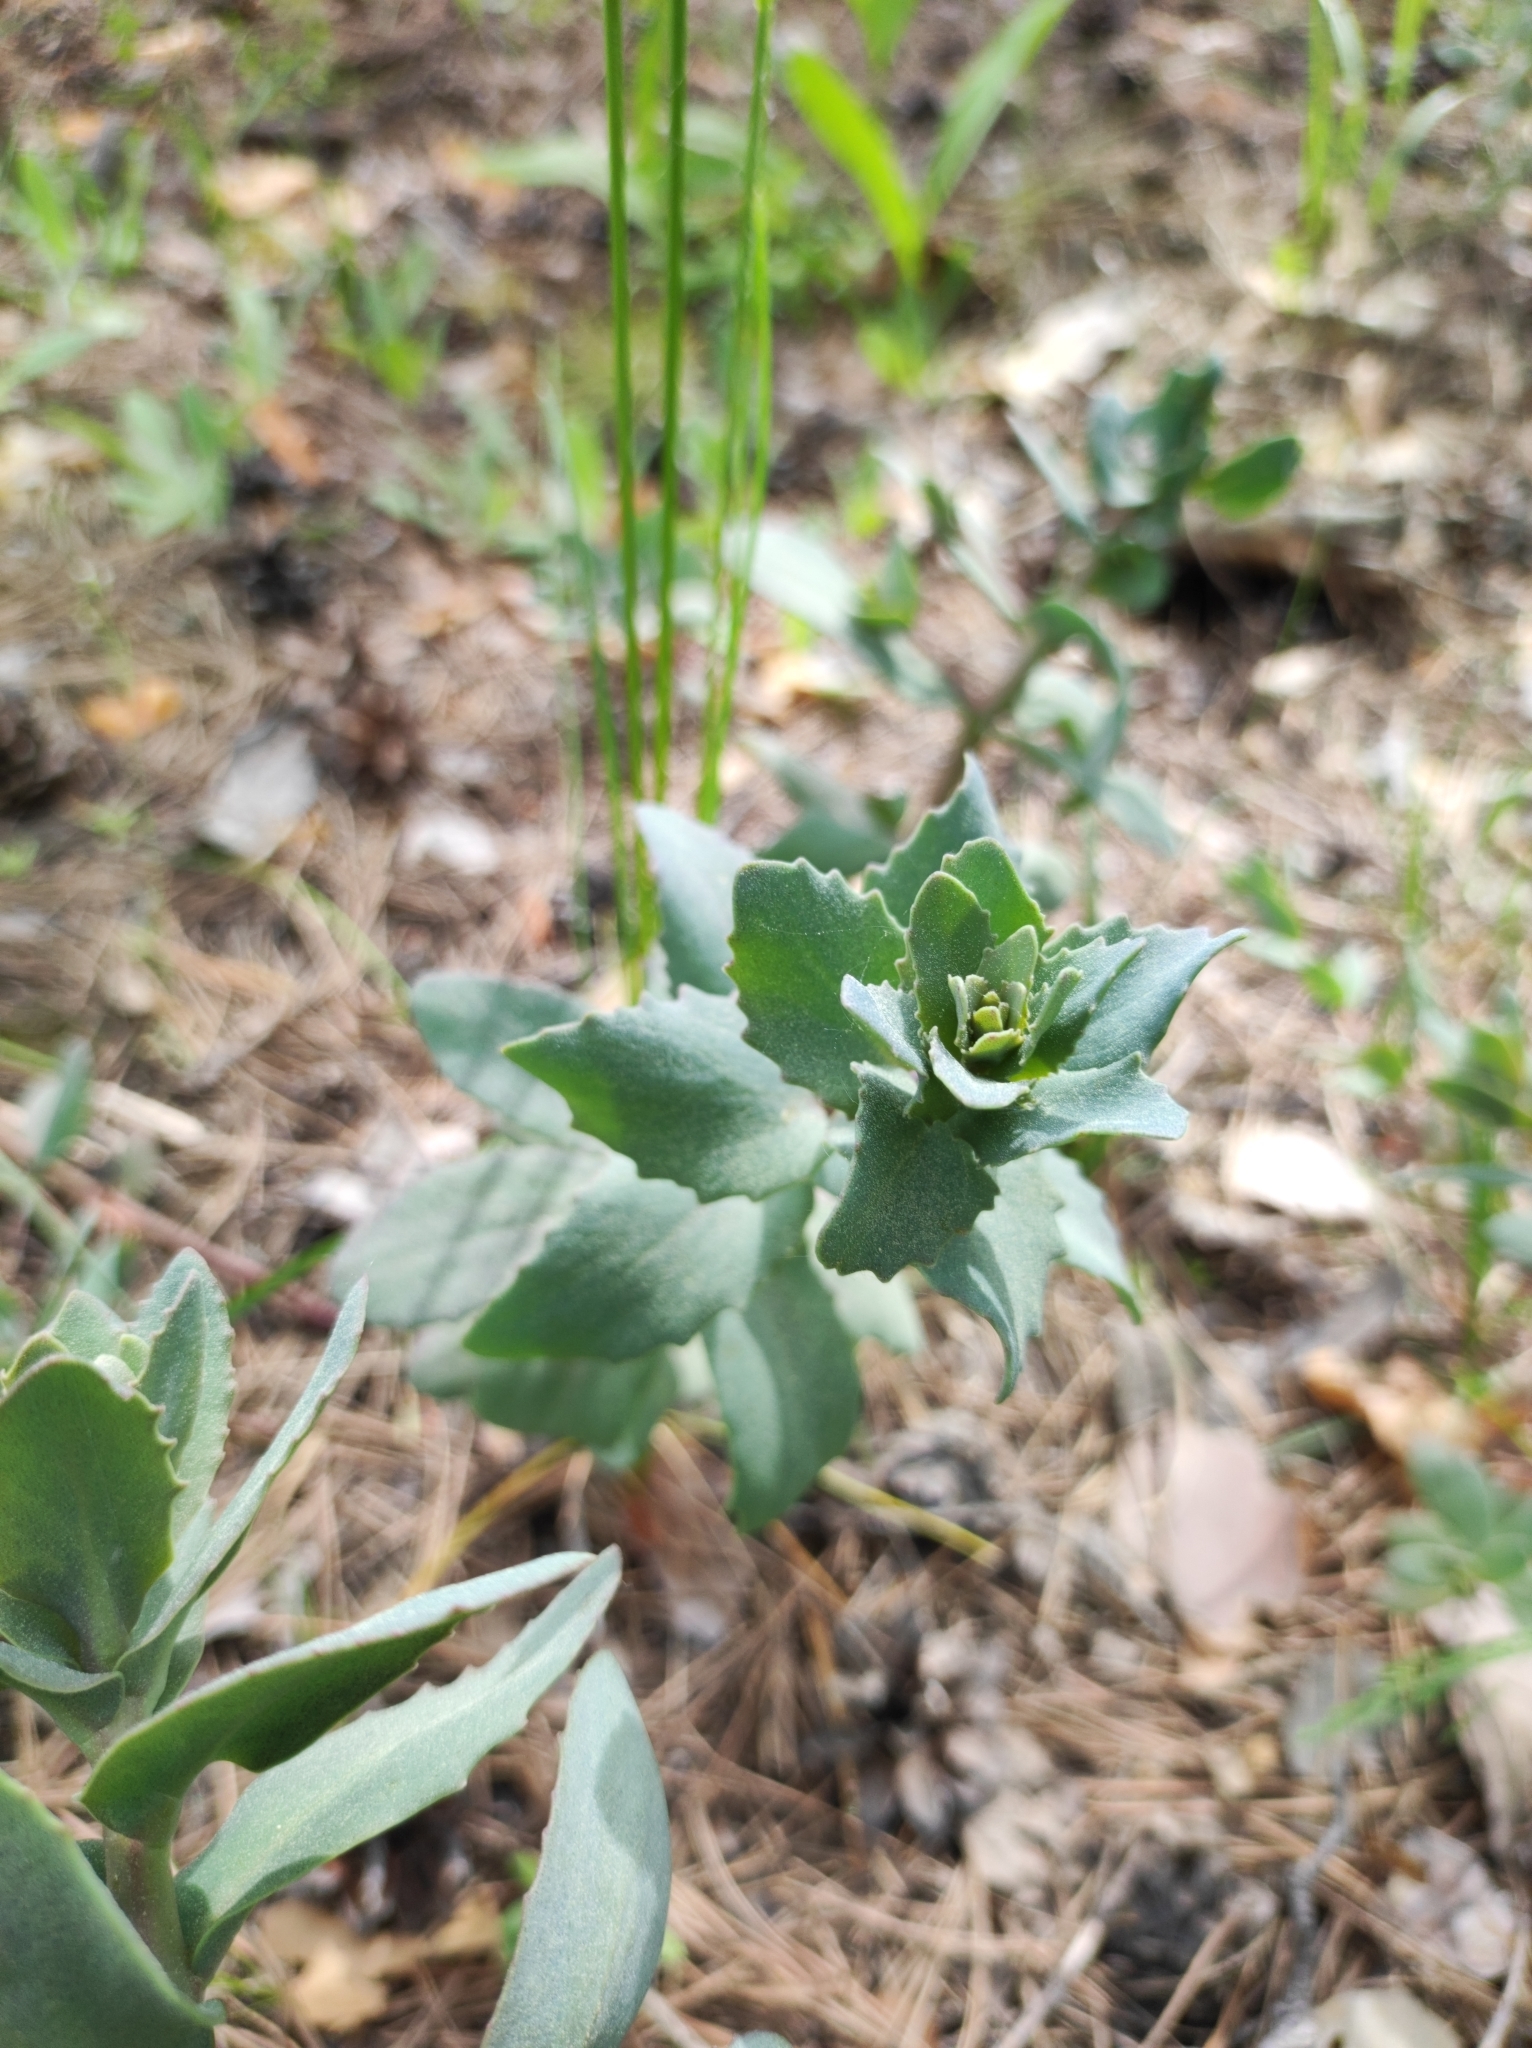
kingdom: Plantae
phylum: Tracheophyta
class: Magnoliopsida
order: Saxifragales
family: Crassulaceae
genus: Hylotelephium
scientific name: Hylotelephium maximum
